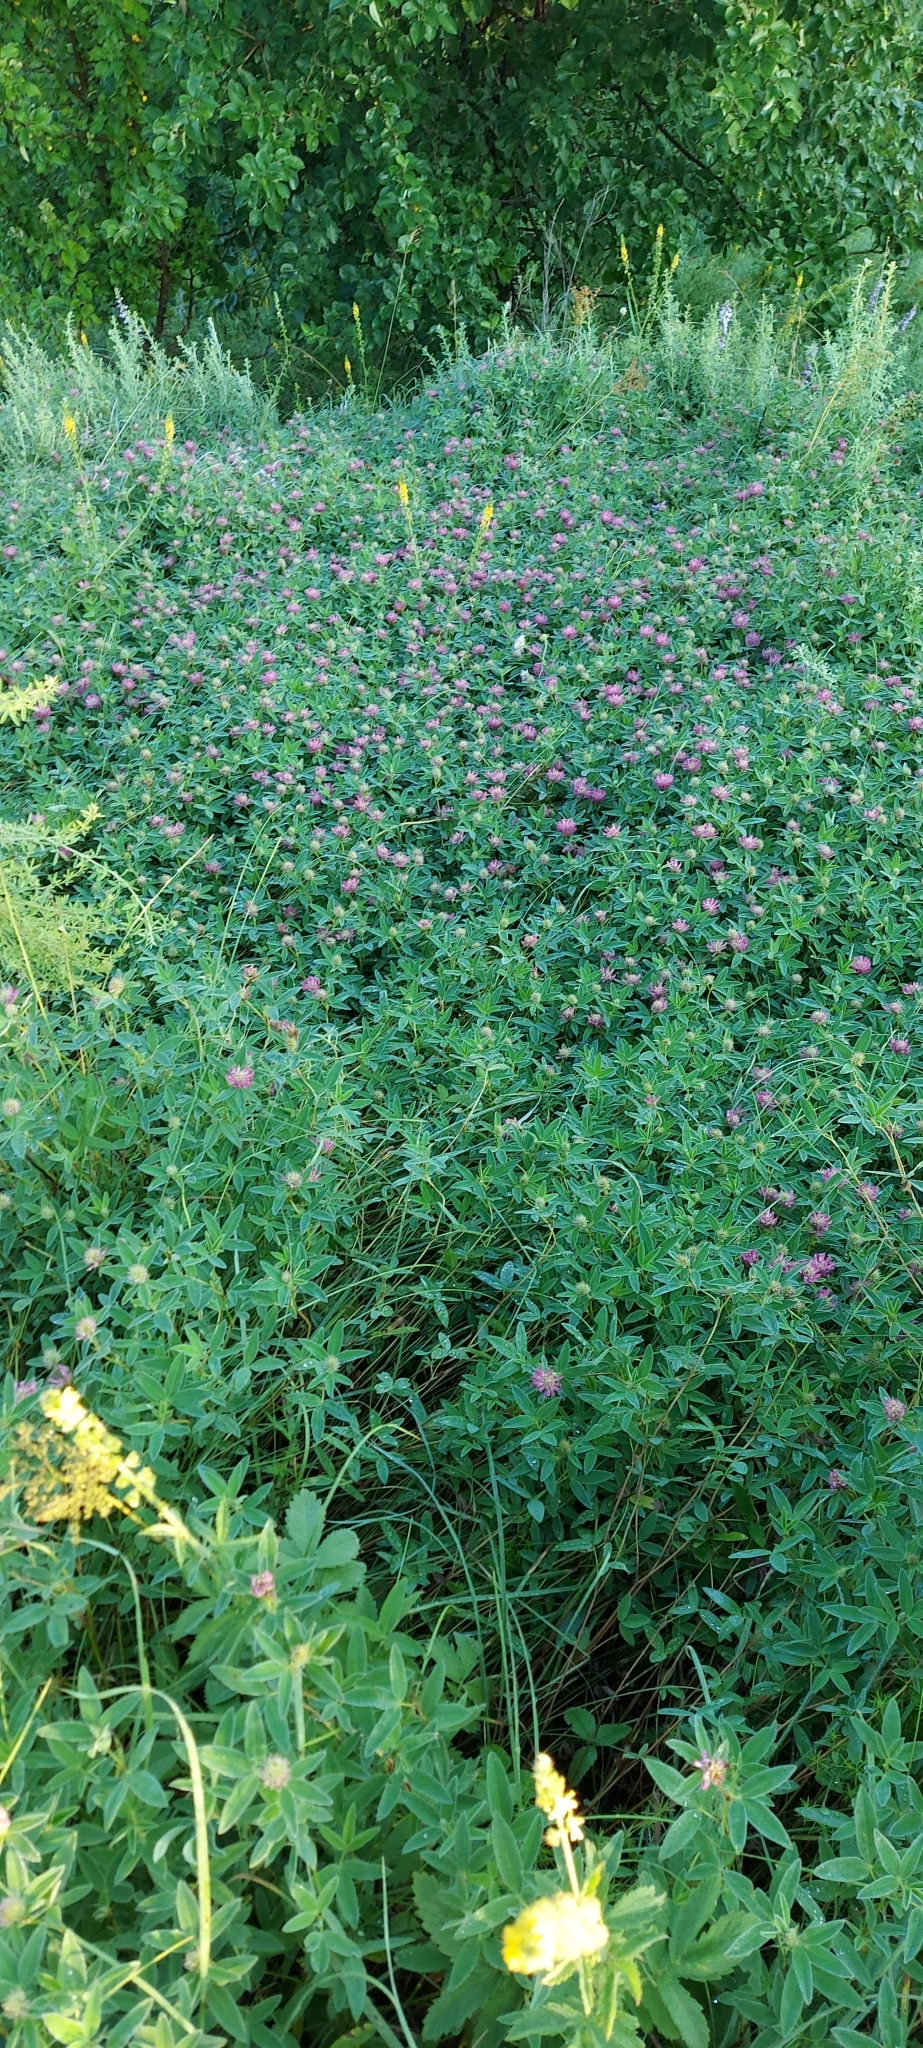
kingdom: Plantae
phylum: Tracheophyta
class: Magnoliopsida
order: Fabales
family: Fabaceae
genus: Trifolium
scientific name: Trifolium medium
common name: Zigzag clover
